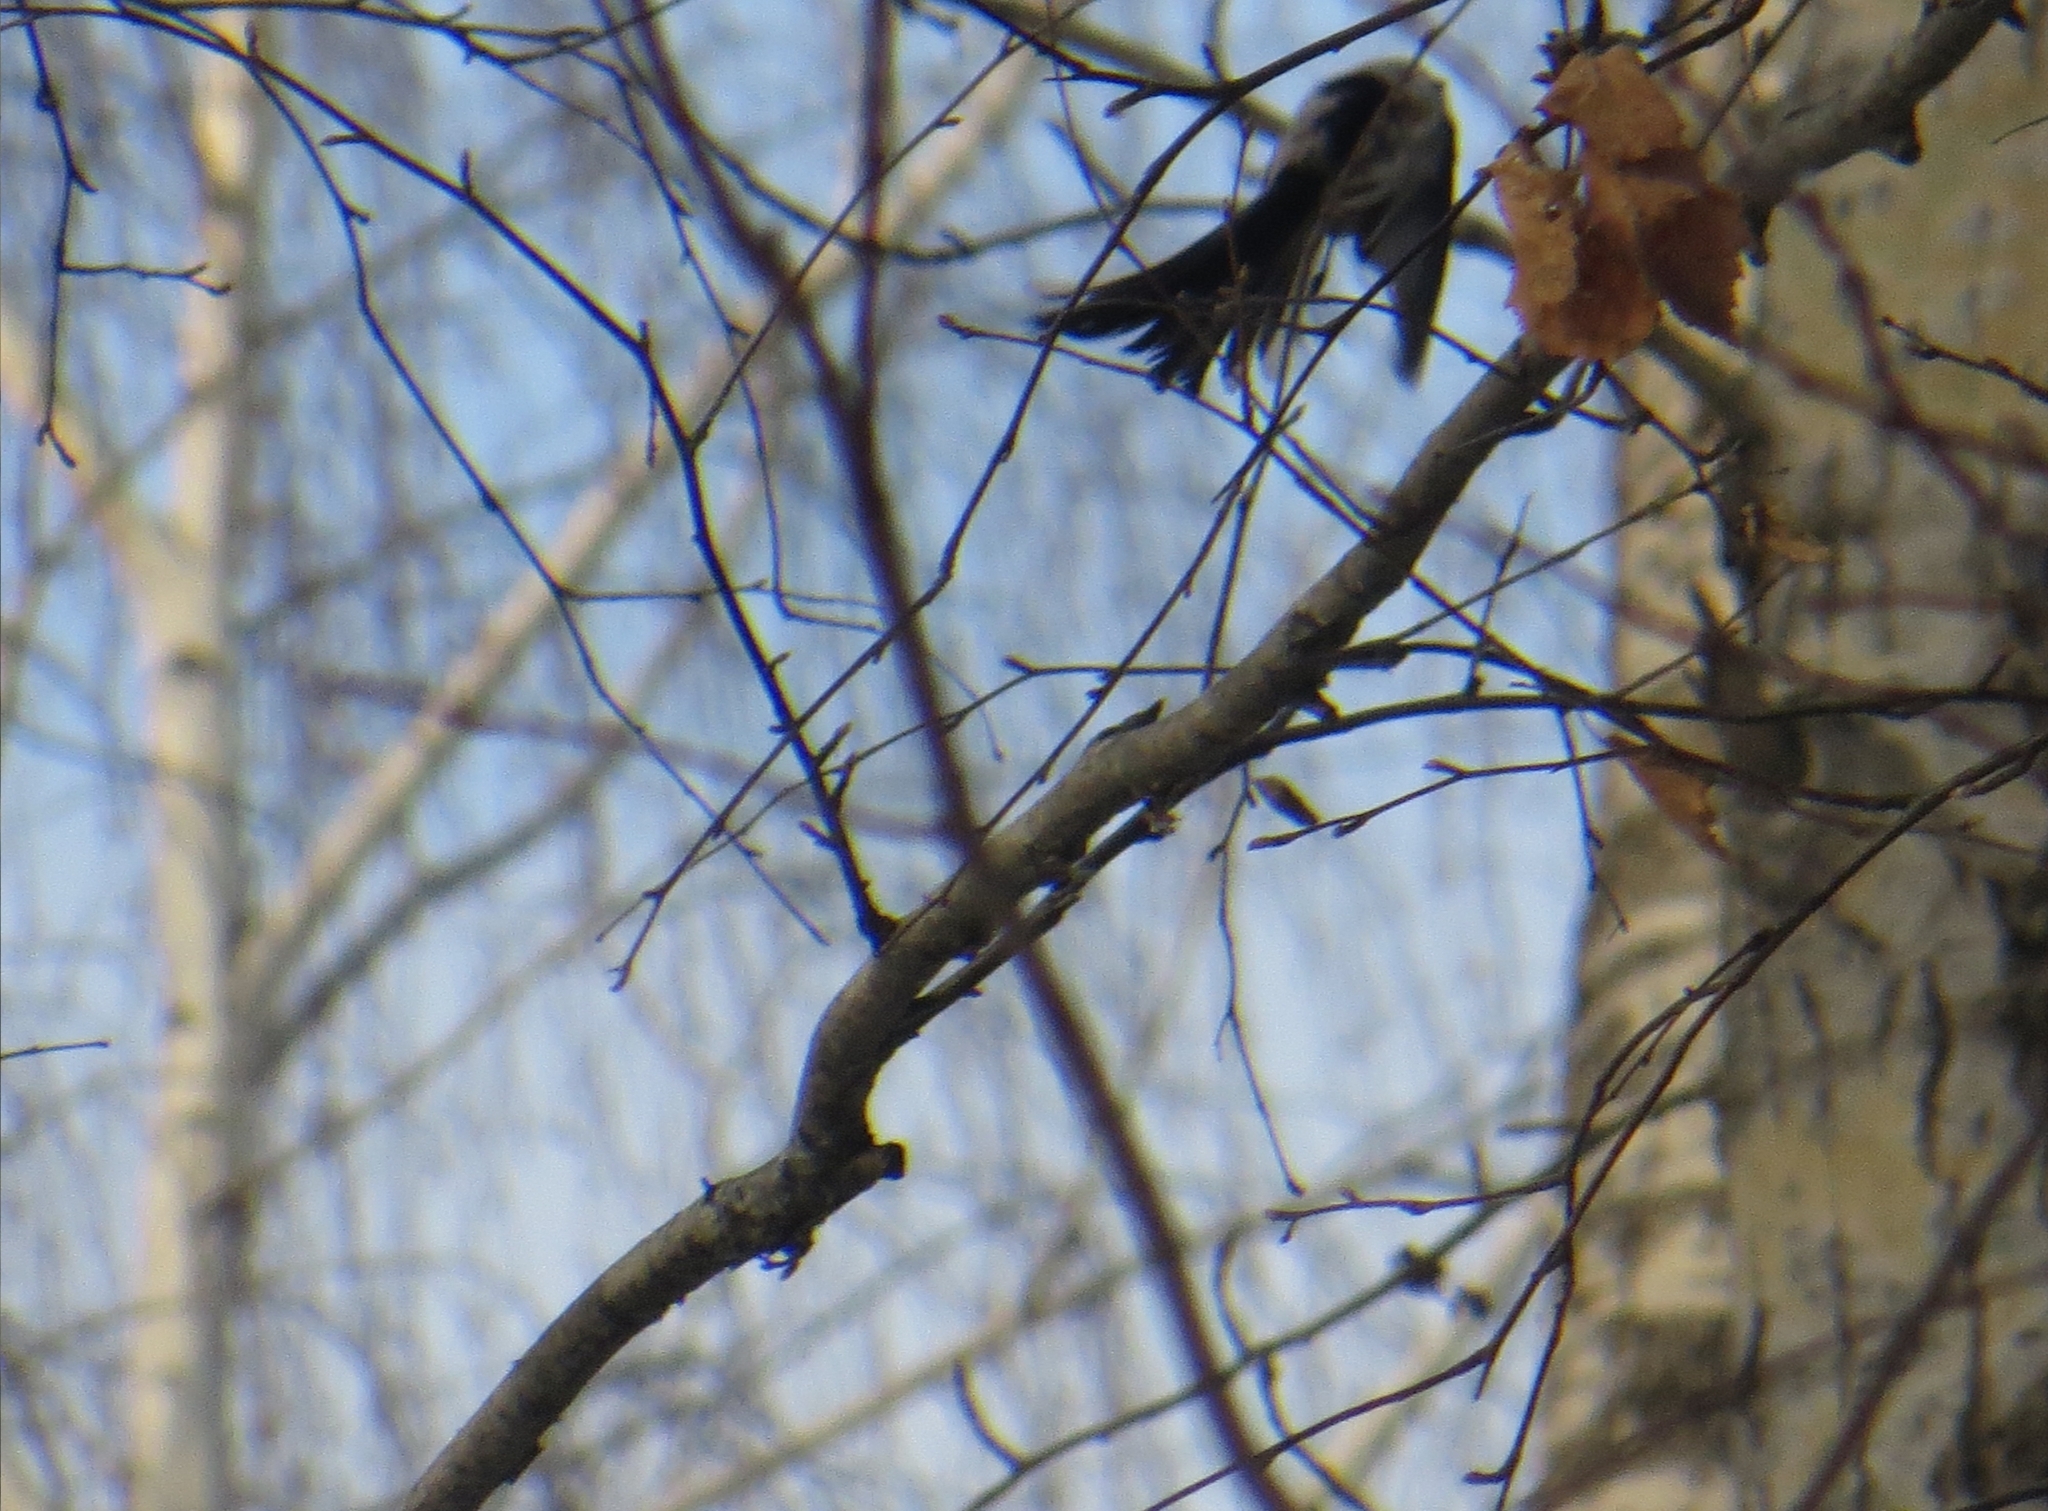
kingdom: Animalia
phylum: Chordata
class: Aves
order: Passeriformes
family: Aegithalidae
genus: Aegithalos
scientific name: Aegithalos caudatus
